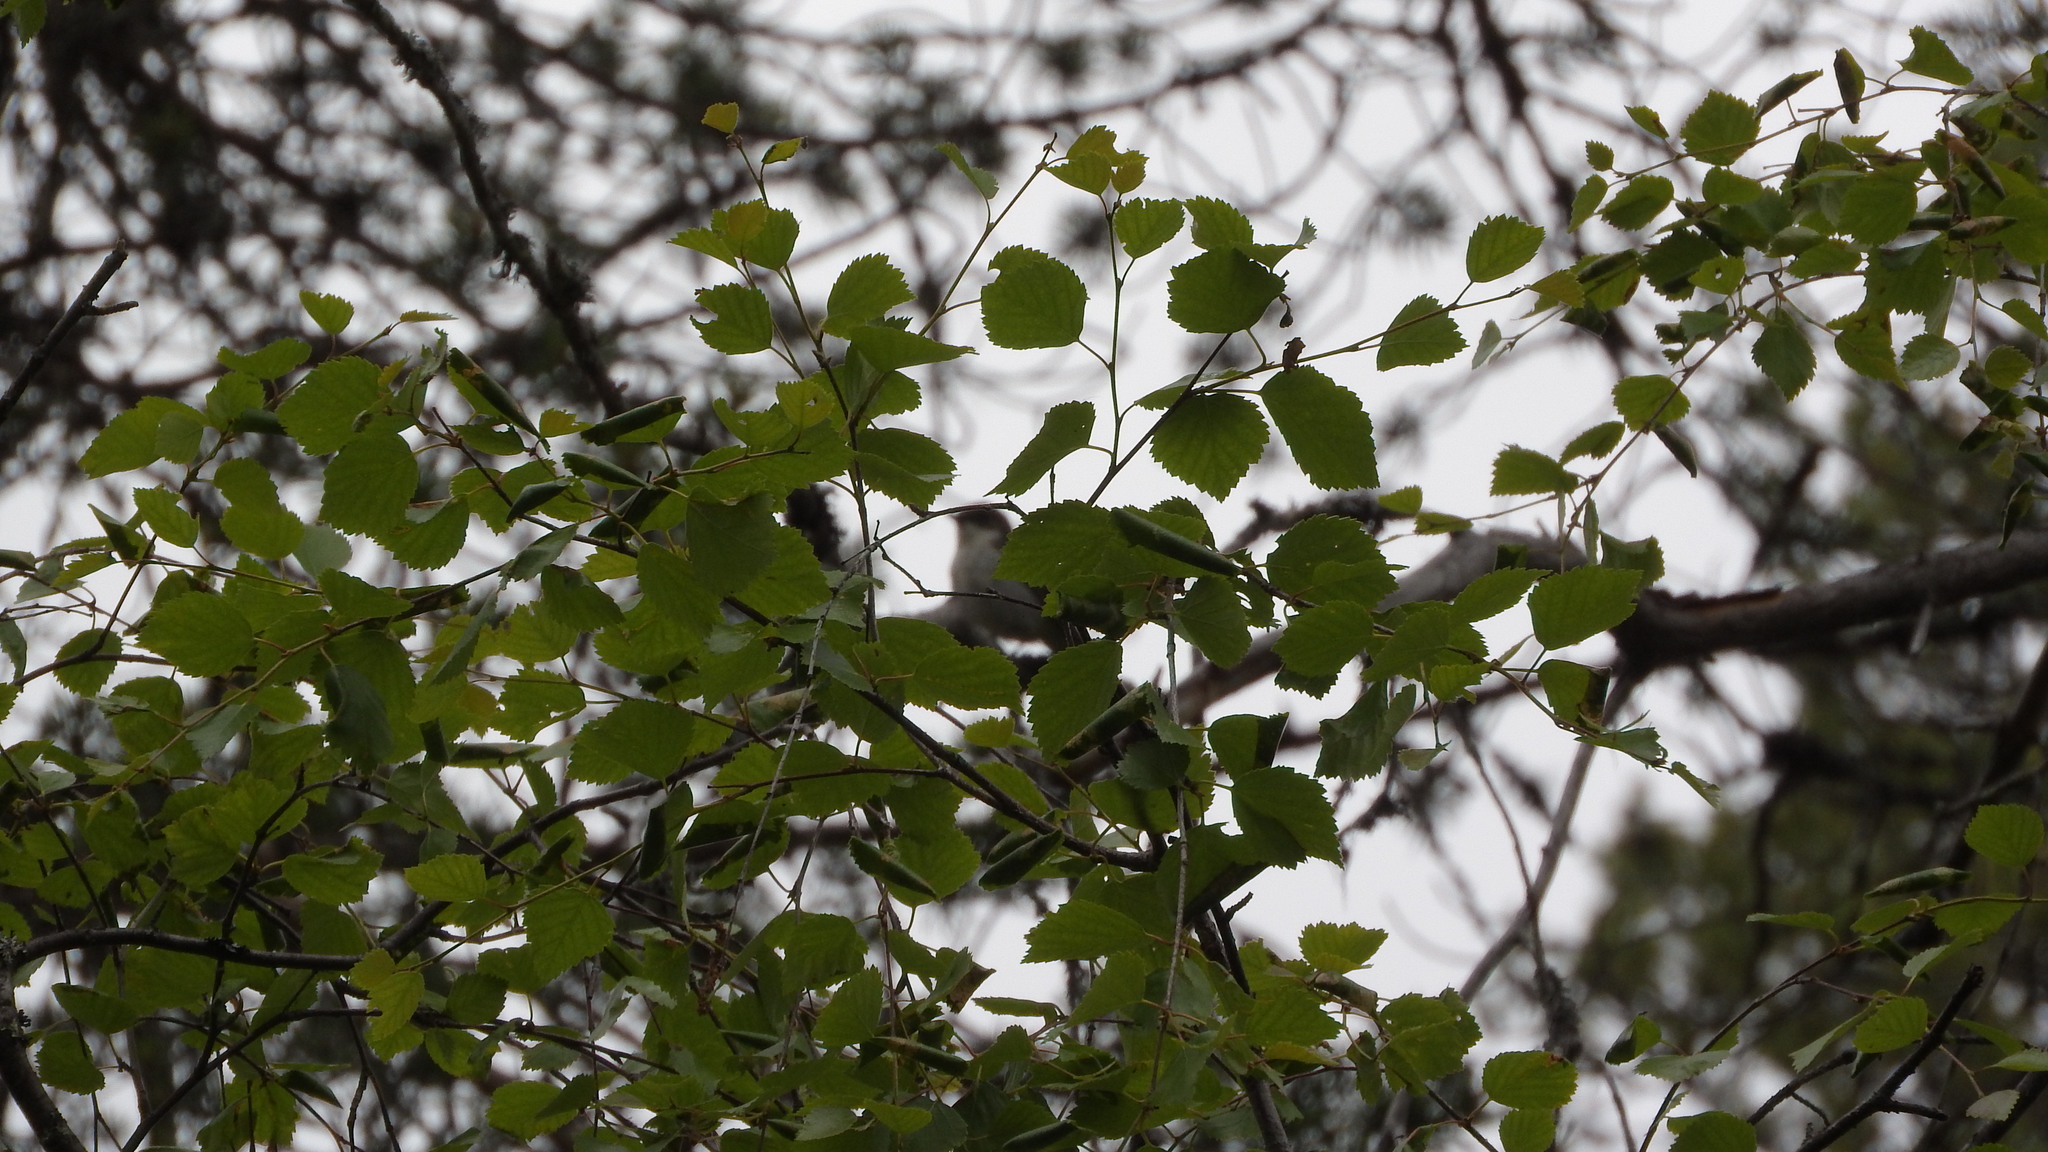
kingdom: Animalia
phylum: Chordata
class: Aves
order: Passeriformes
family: Muscicapidae
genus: Ficedula
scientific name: Ficedula hypoleuca
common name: European pied flycatcher
